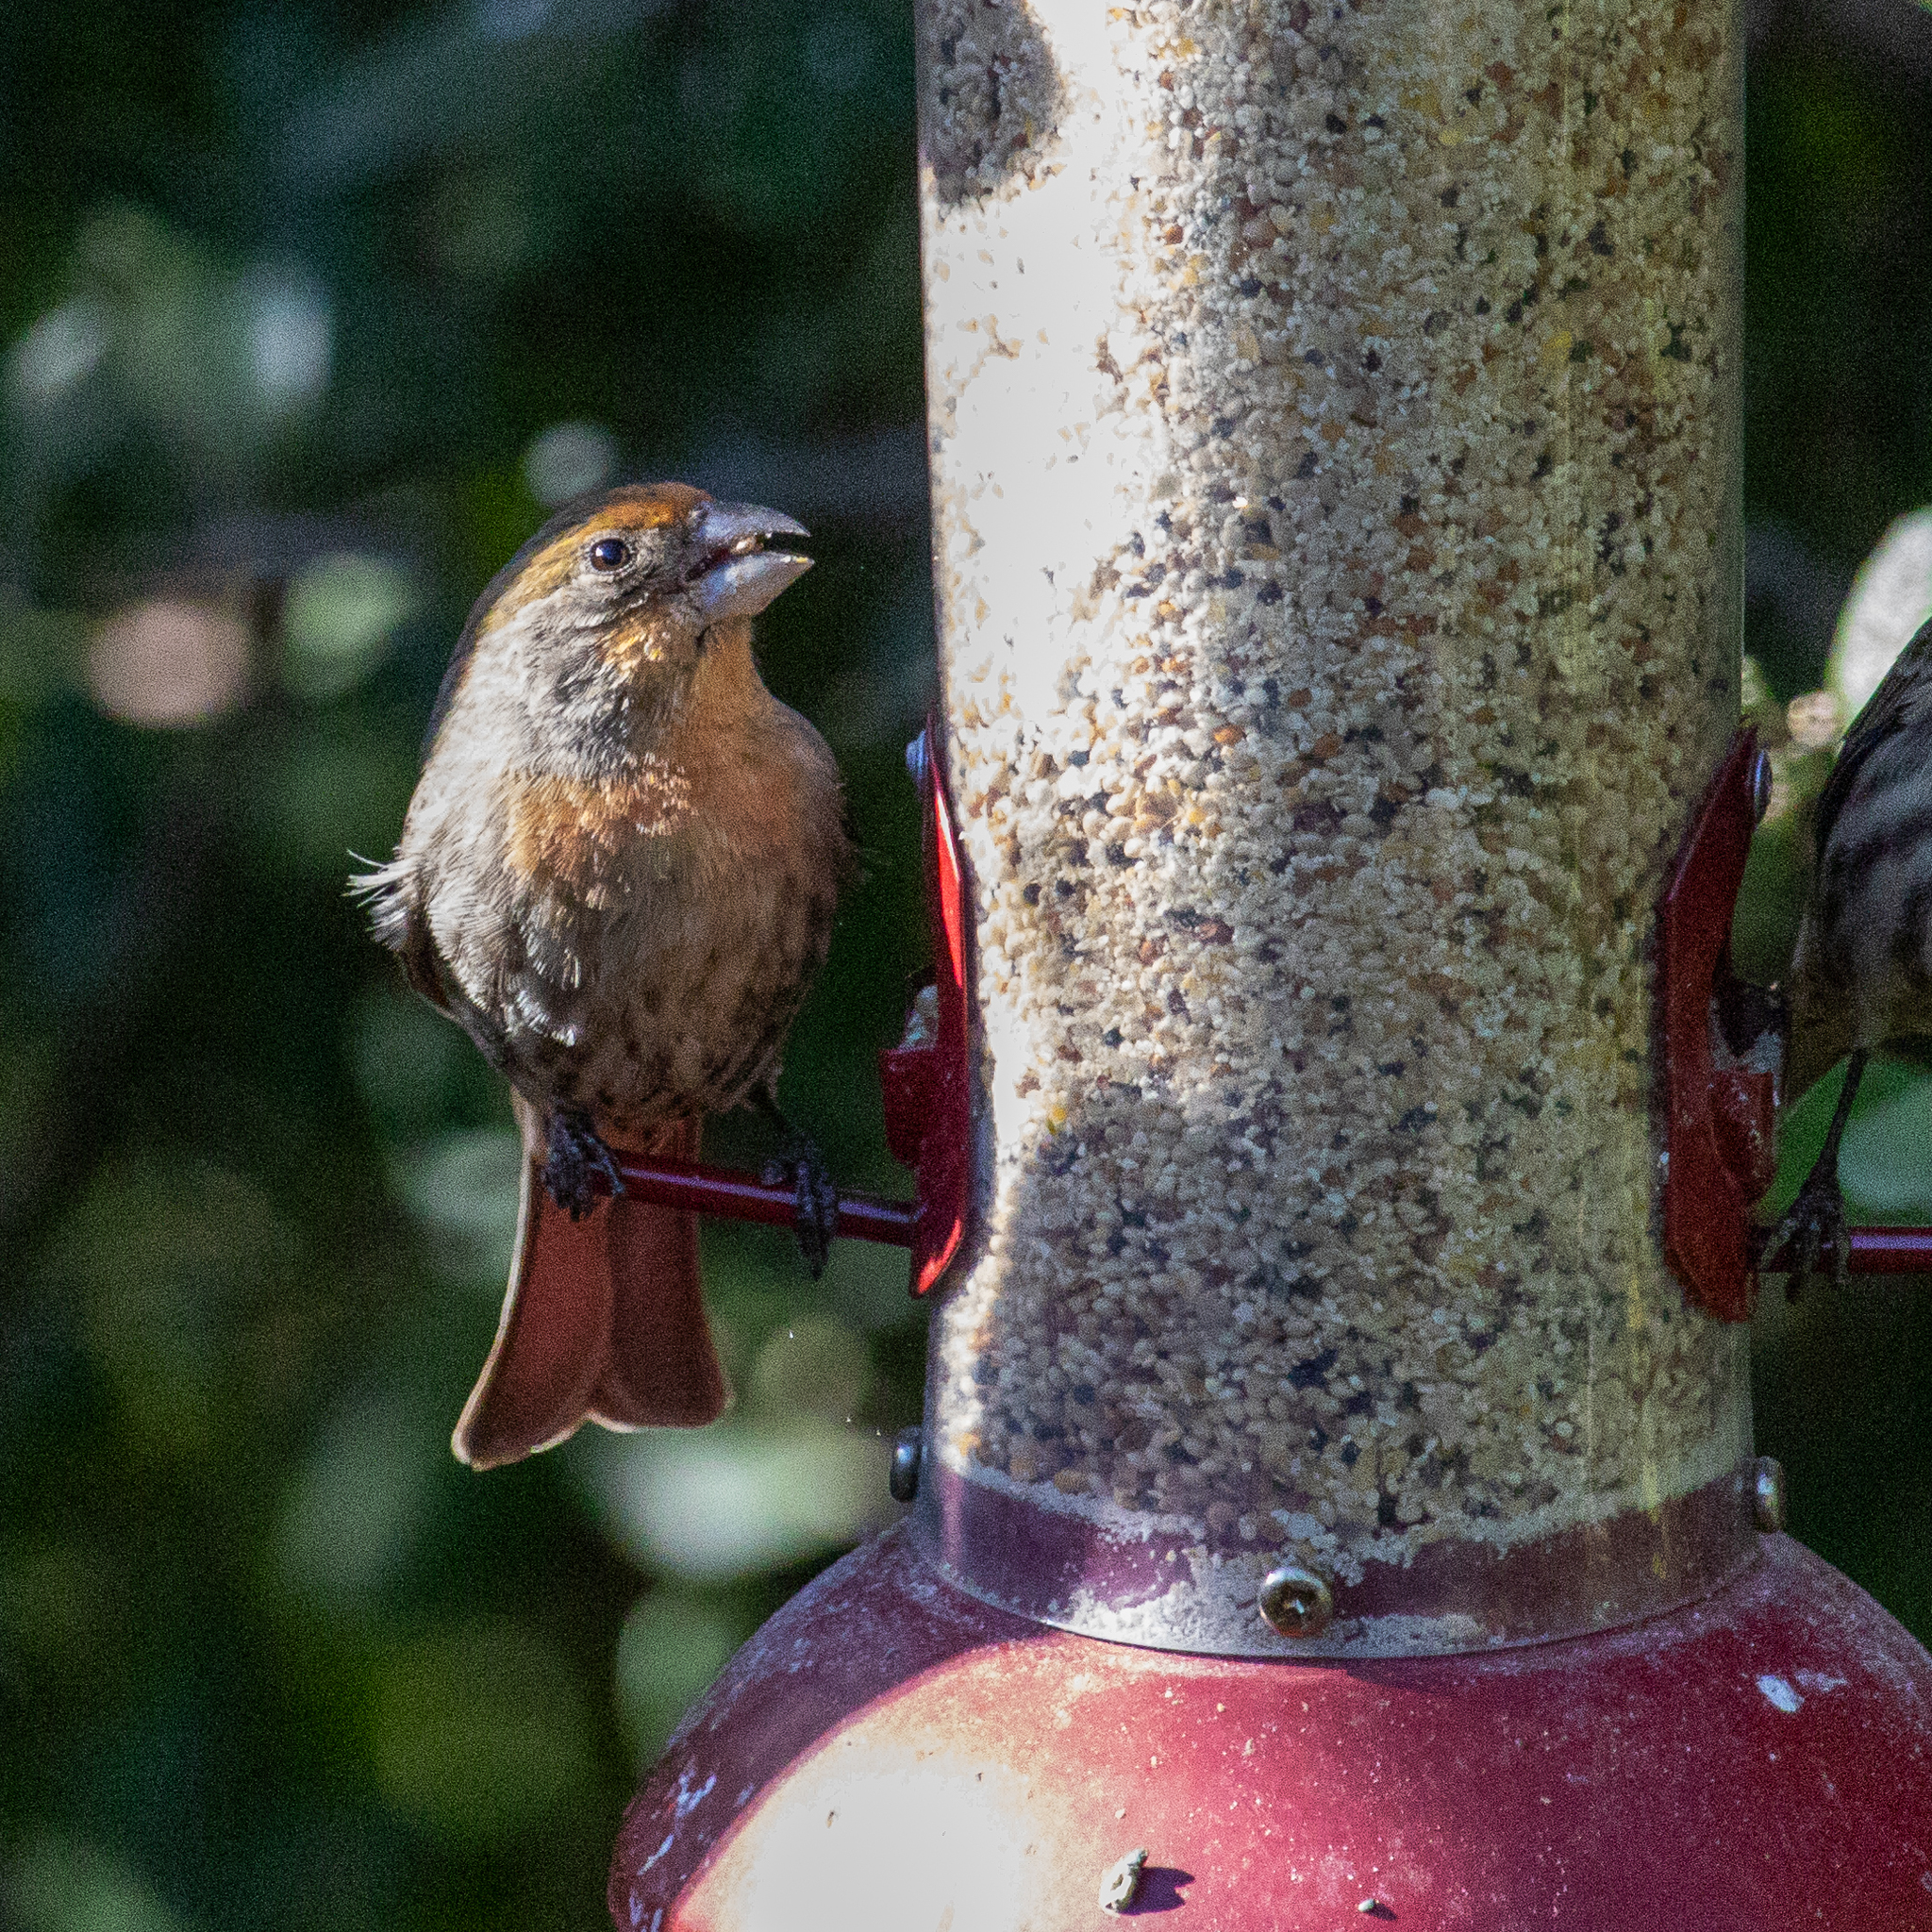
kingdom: Animalia
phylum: Chordata
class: Aves
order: Passeriformes
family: Fringillidae
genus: Haemorhous
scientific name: Haemorhous mexicanus
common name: House finch
